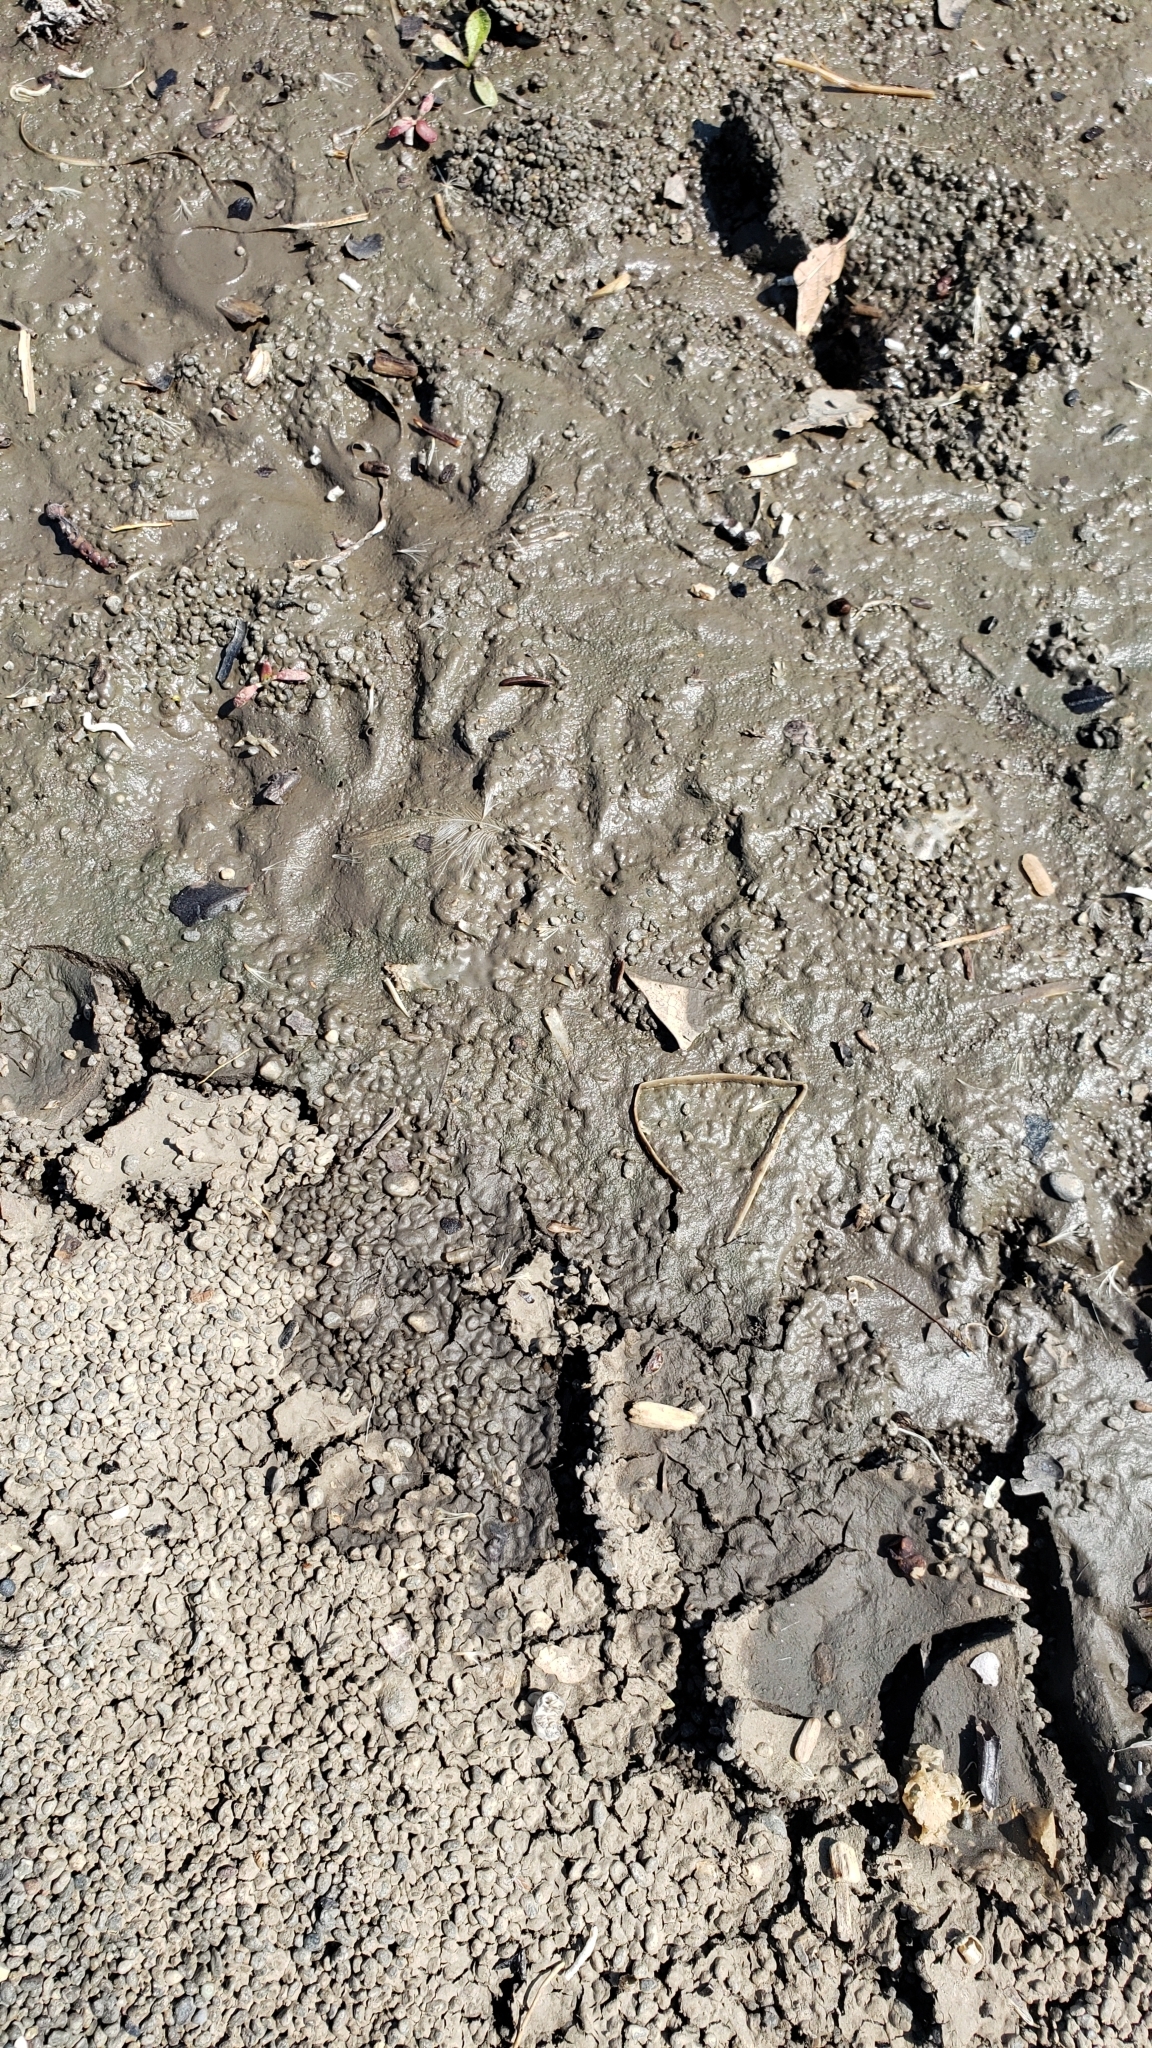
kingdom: Animalia
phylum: Chordata
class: Mammalia
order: Carnivora
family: Procyonidae
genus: Procyon
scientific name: Procyon lotor
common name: Raccoon
